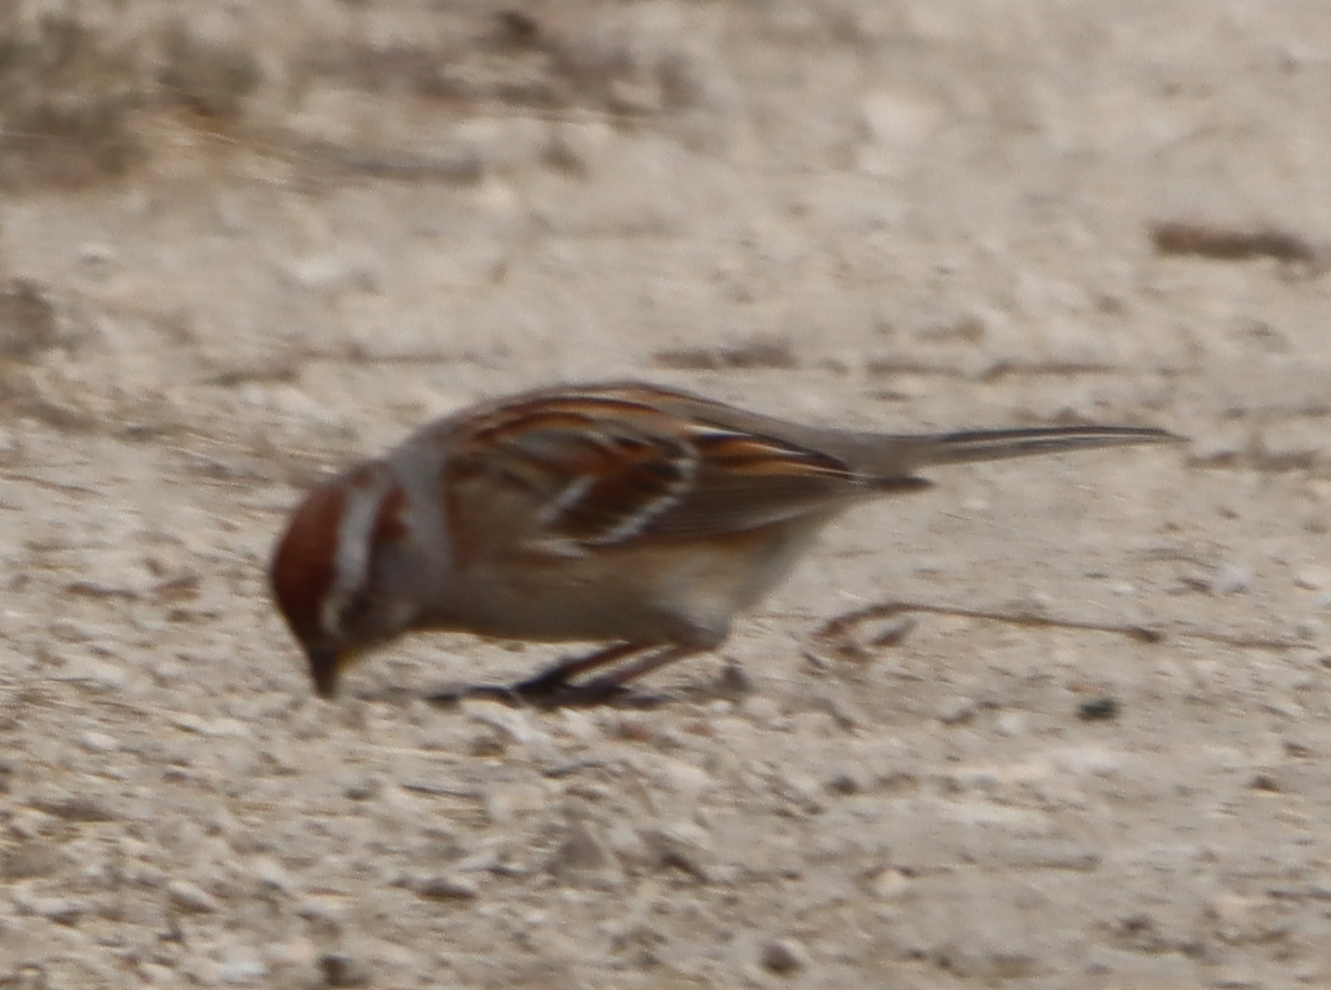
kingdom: Animalia
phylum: Chordata
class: Aves
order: Passeriformes
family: Passerellidae
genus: Spizelloides
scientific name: Spizelloides arborea
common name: American tree sparrow
